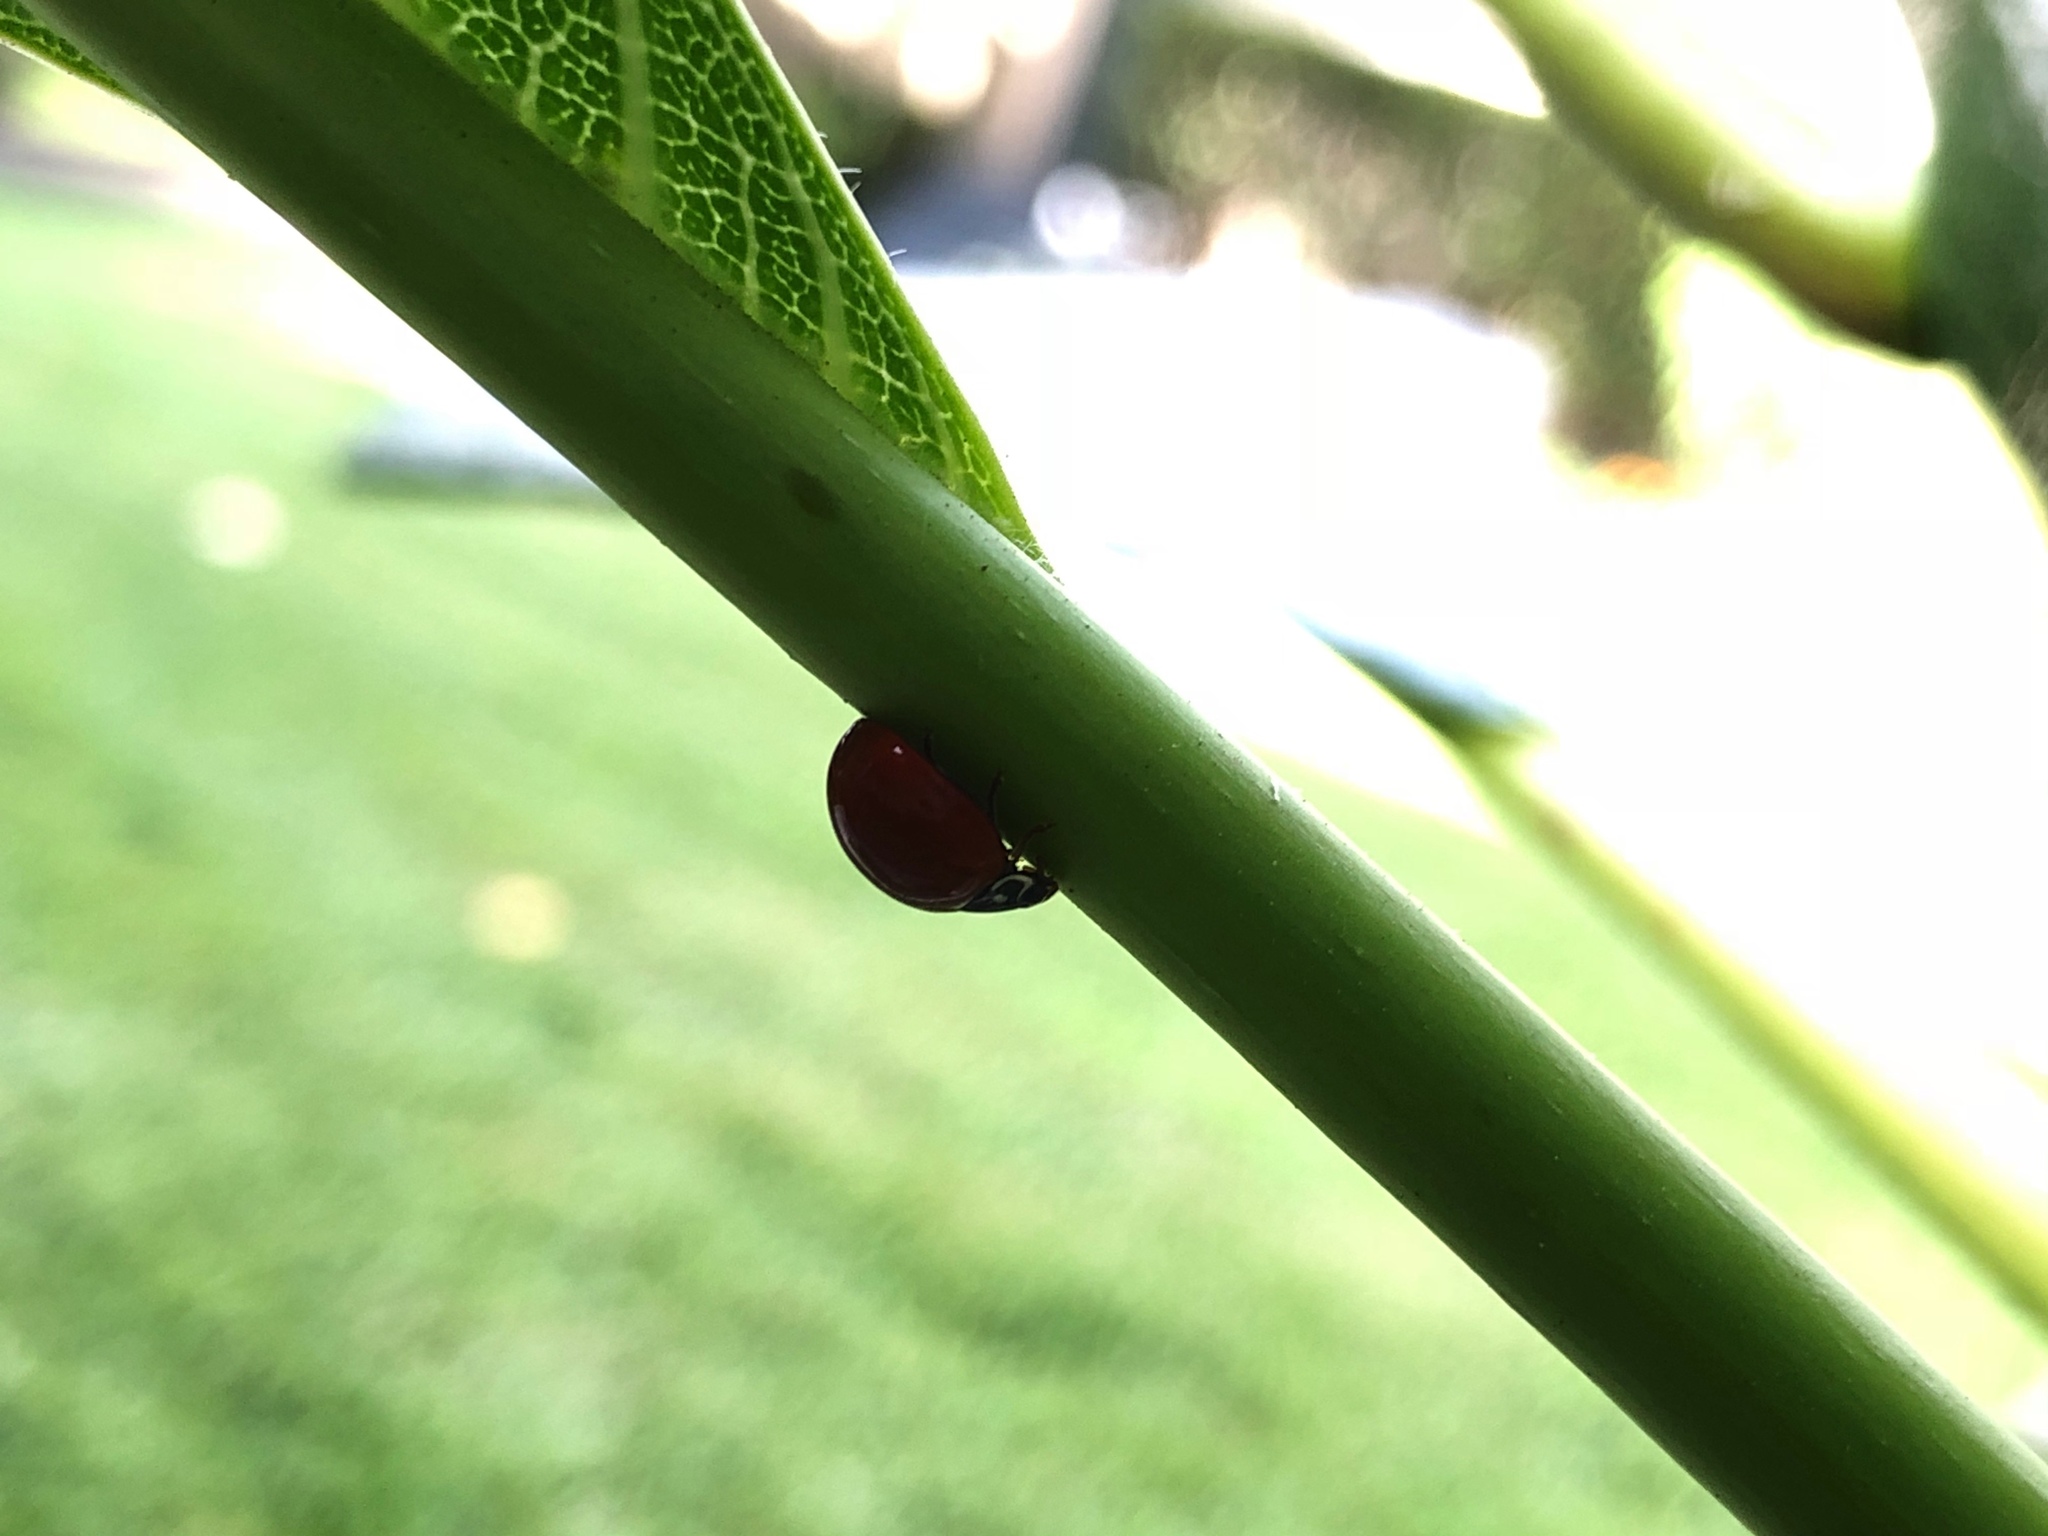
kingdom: Animalia
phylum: Arthropoda
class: Insecta
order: Coleoptera
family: Coccinellidae
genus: Cycloneda
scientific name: Cycloneda sanguinea
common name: Ladybird beetle
